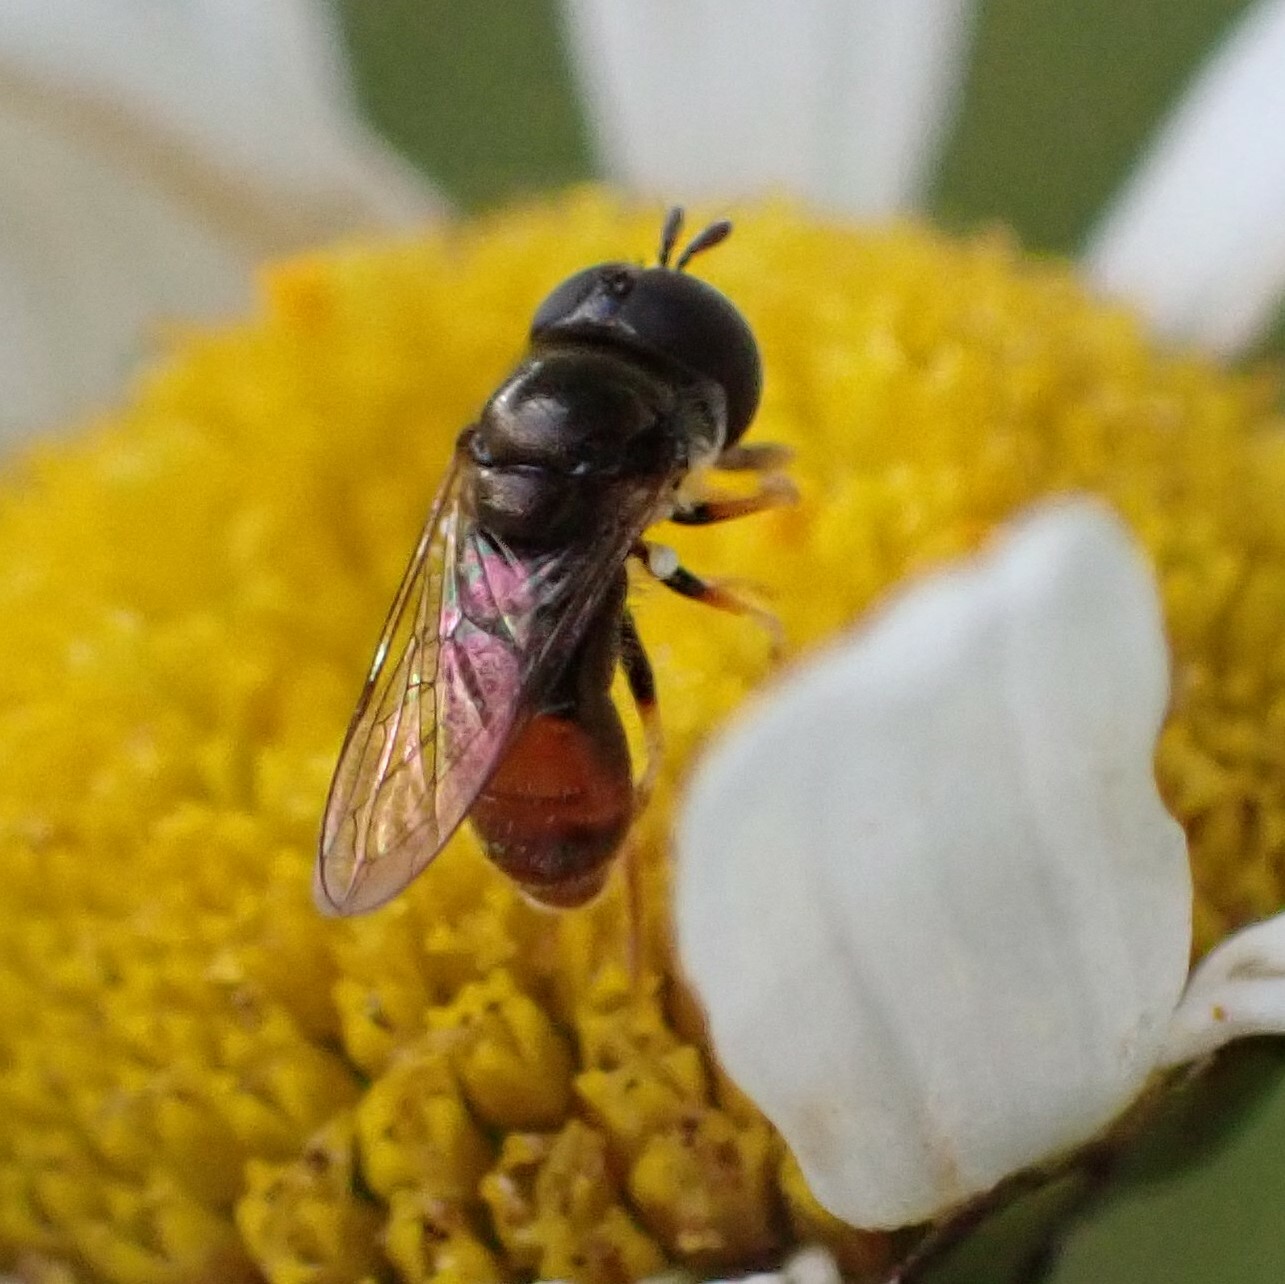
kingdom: Animalia
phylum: Arthropoda
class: Insecta
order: Diptera
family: Syrphidae
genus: Paragus
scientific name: Paragus haemorrhous
